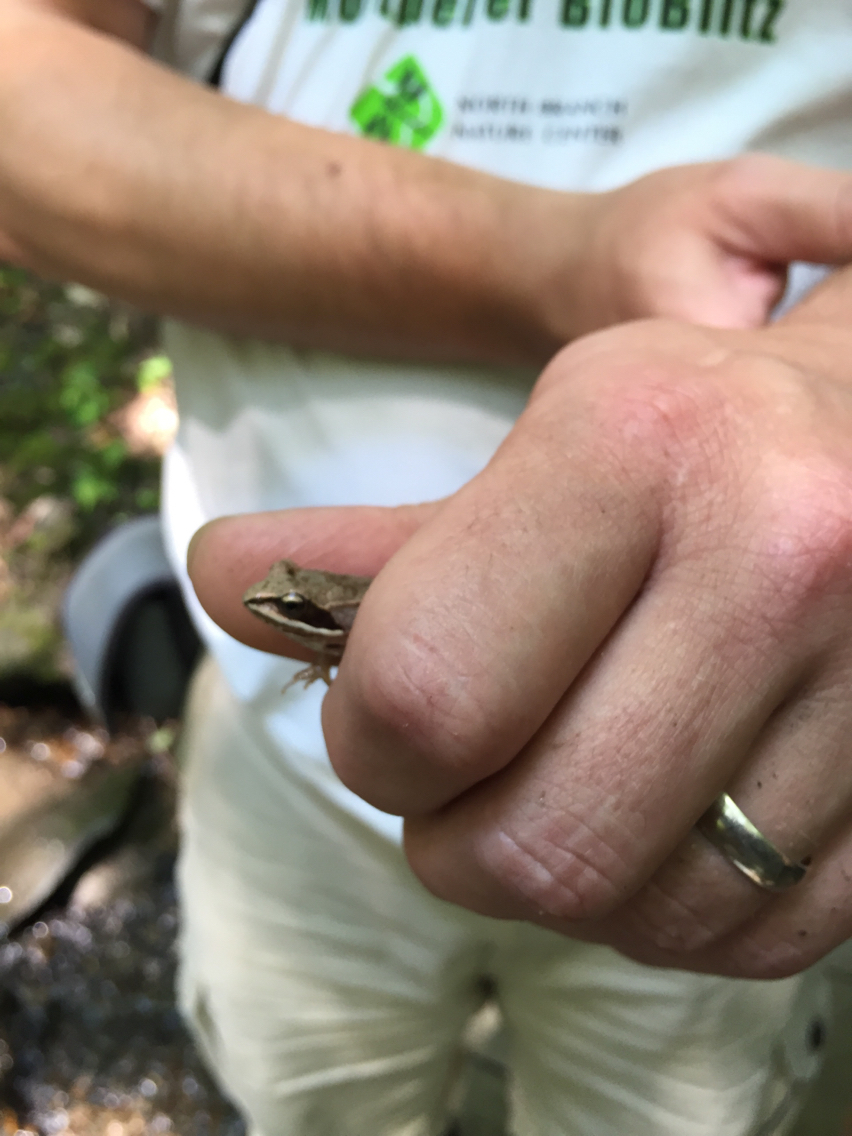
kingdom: Animalia
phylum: Chordata
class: Amphibia
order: Anura
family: Ranidae
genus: Lithobates
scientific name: Lithobates sylvaticus
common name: Wood frog
